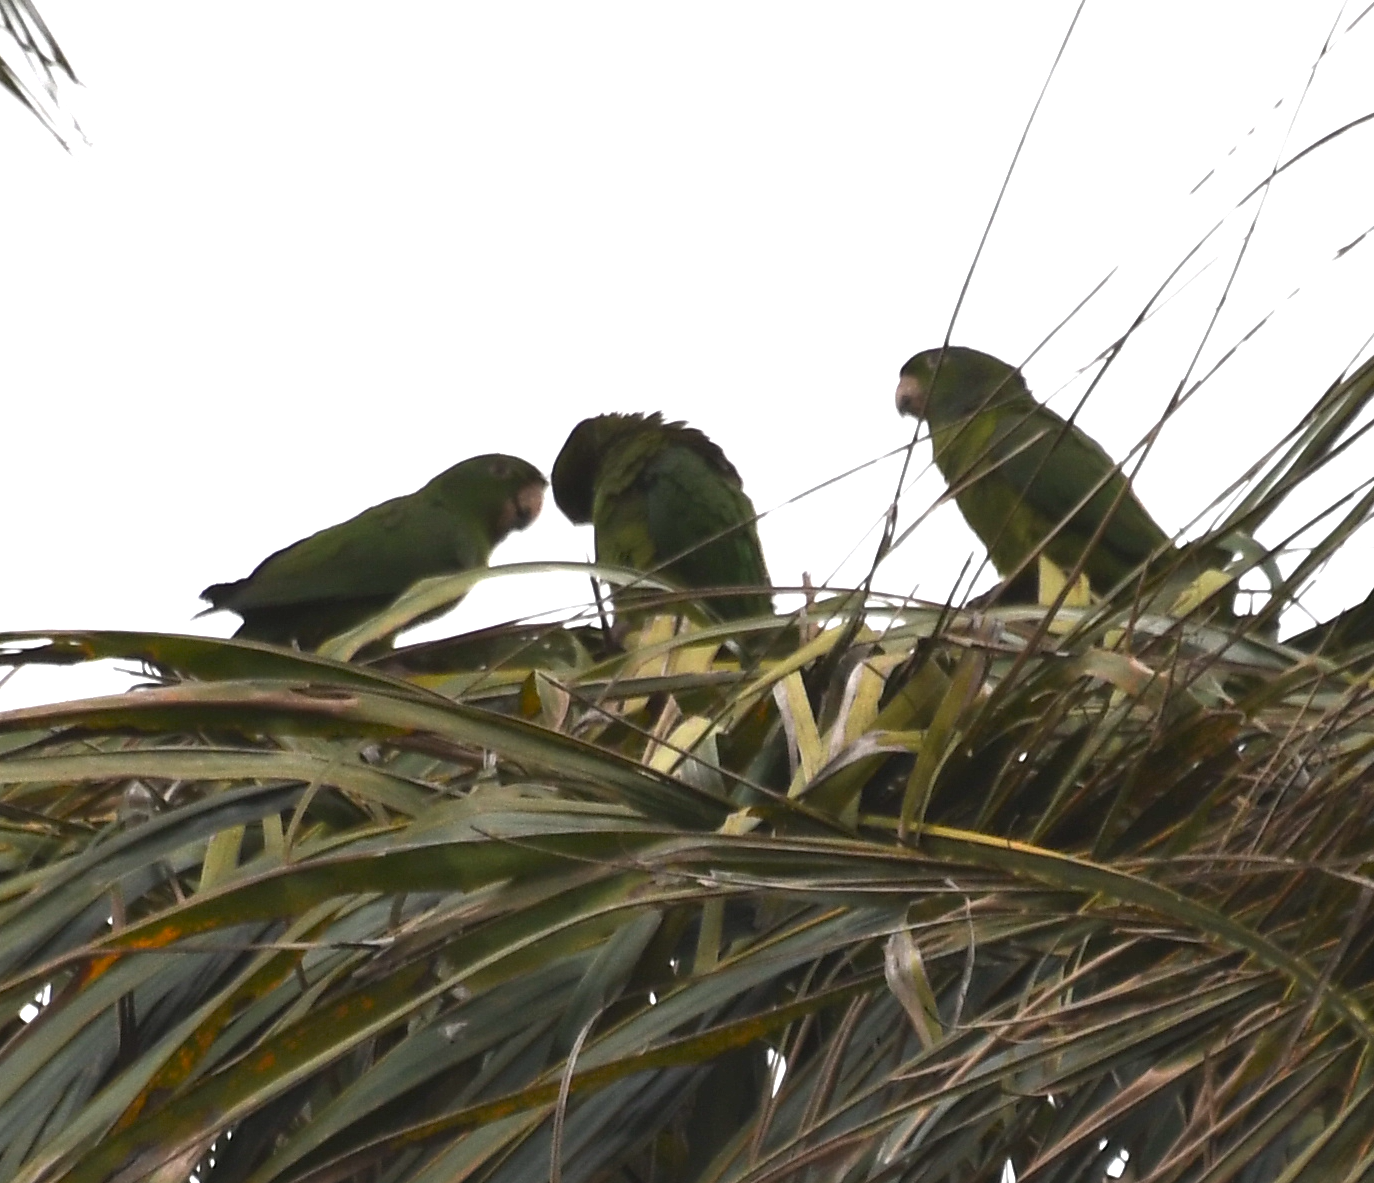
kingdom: Animalia
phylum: Chordata
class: Aves
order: Psittaciformes
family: Psittacidae
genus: Aratinga
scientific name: Aratinga strenua
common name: Pacific parakeet
